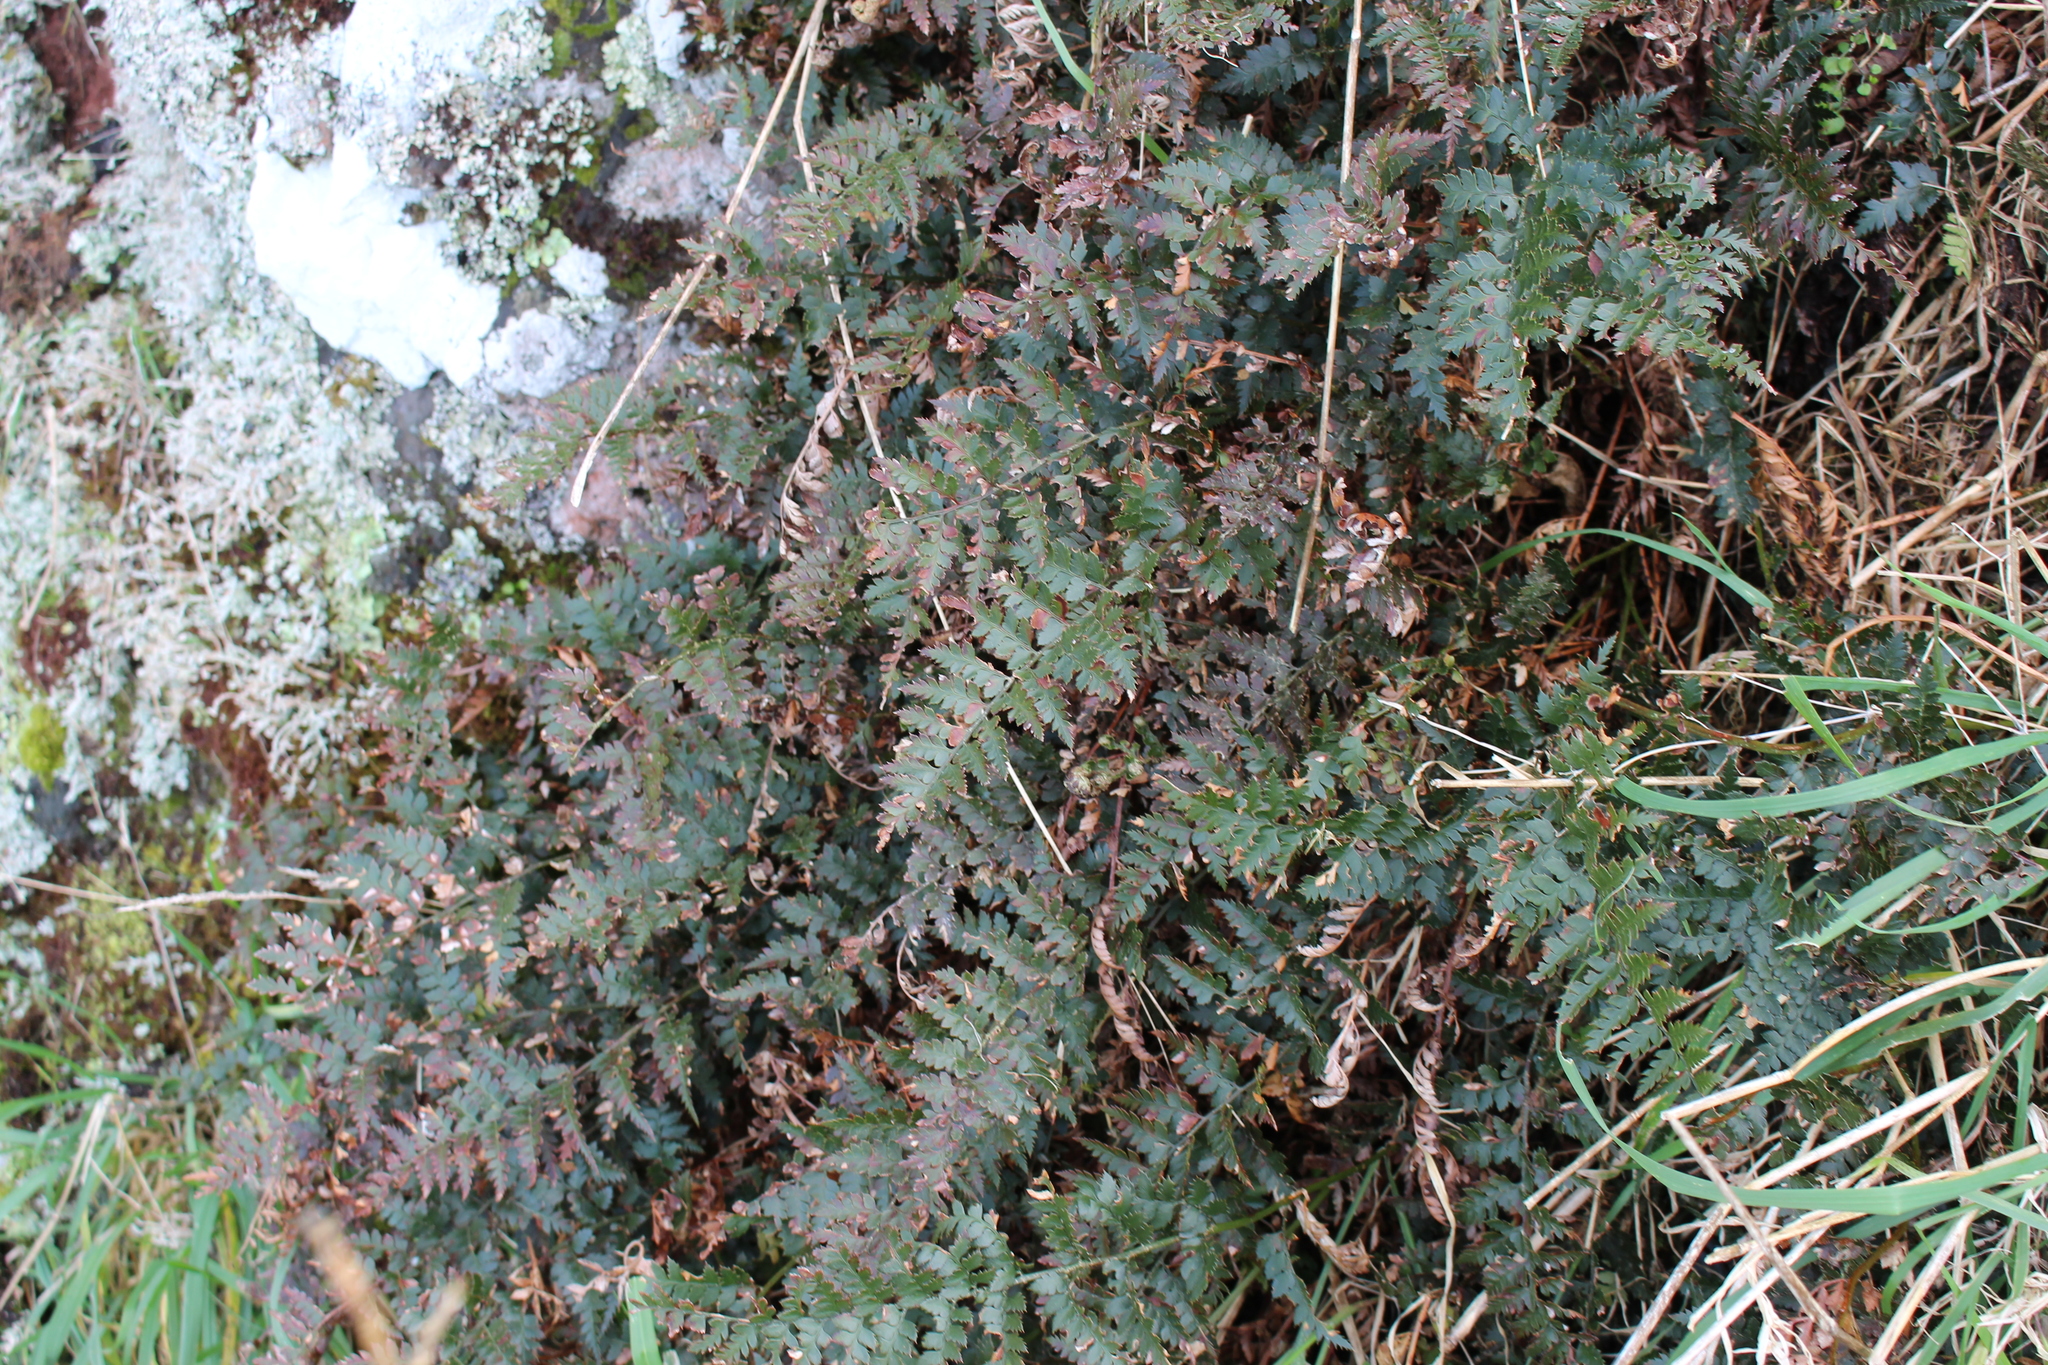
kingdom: Plantae
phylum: Tracheophyta
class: Polypodiopsida
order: Polypodiales
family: Dryopteridaceae
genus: Polystichum
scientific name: Polystichum oculatum
